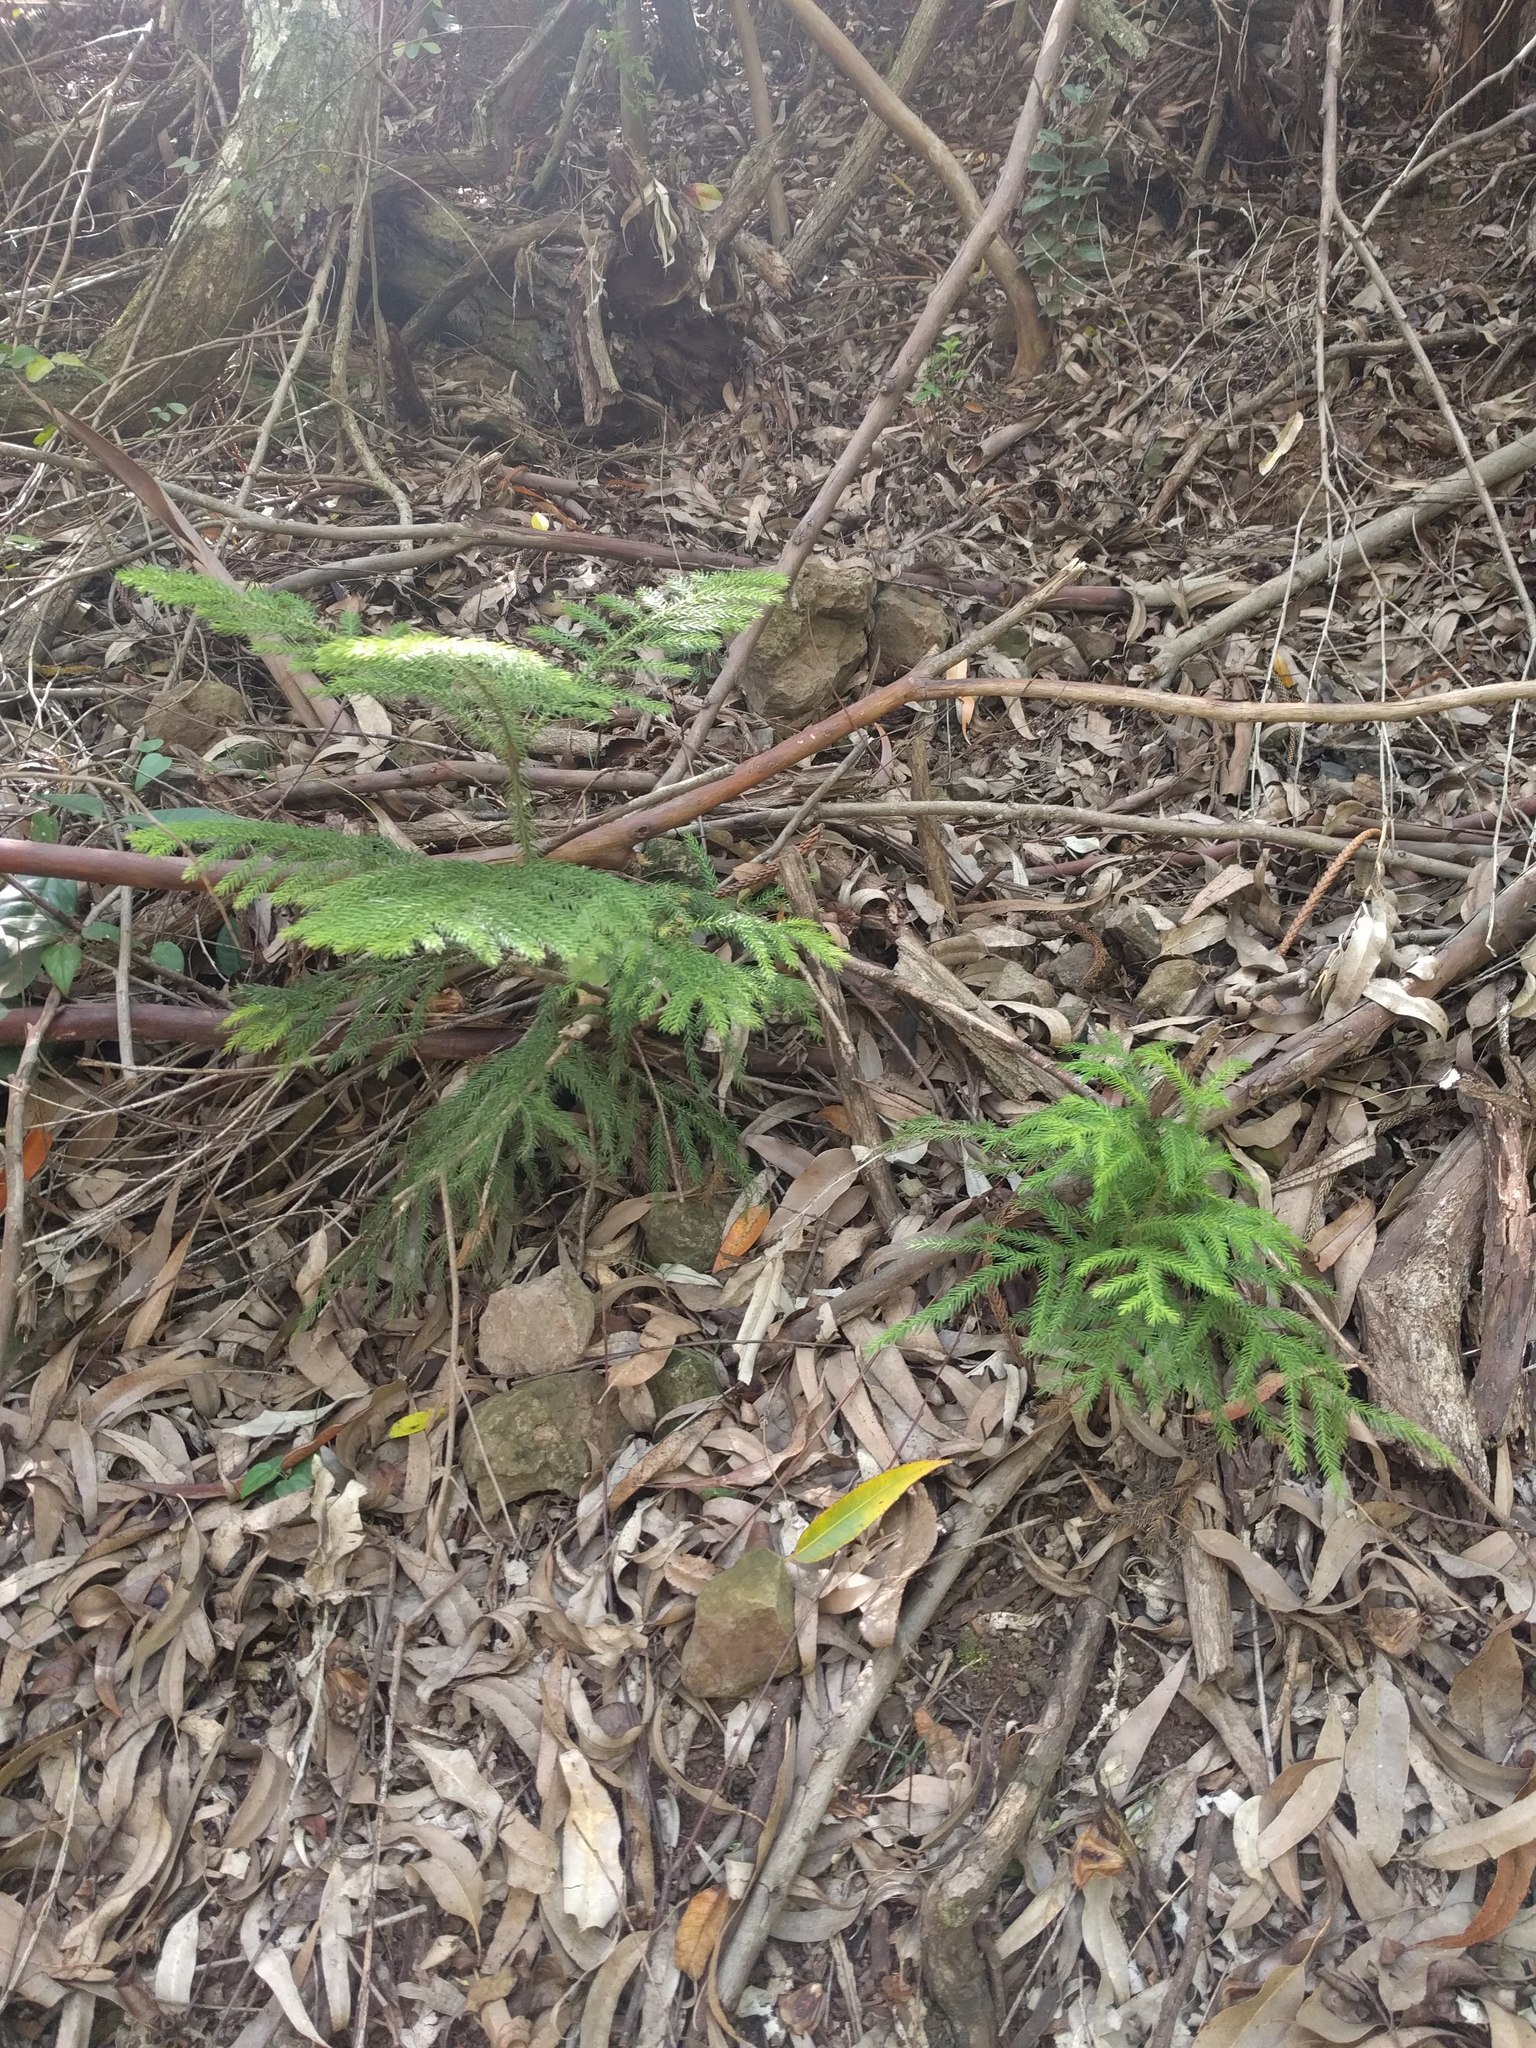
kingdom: Plantae
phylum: Tracheophyta
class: Pinopsida
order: Pinales
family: Araucariaceae
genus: Araucaria
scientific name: Araucaria columnaris
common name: Coral reef araucaria
